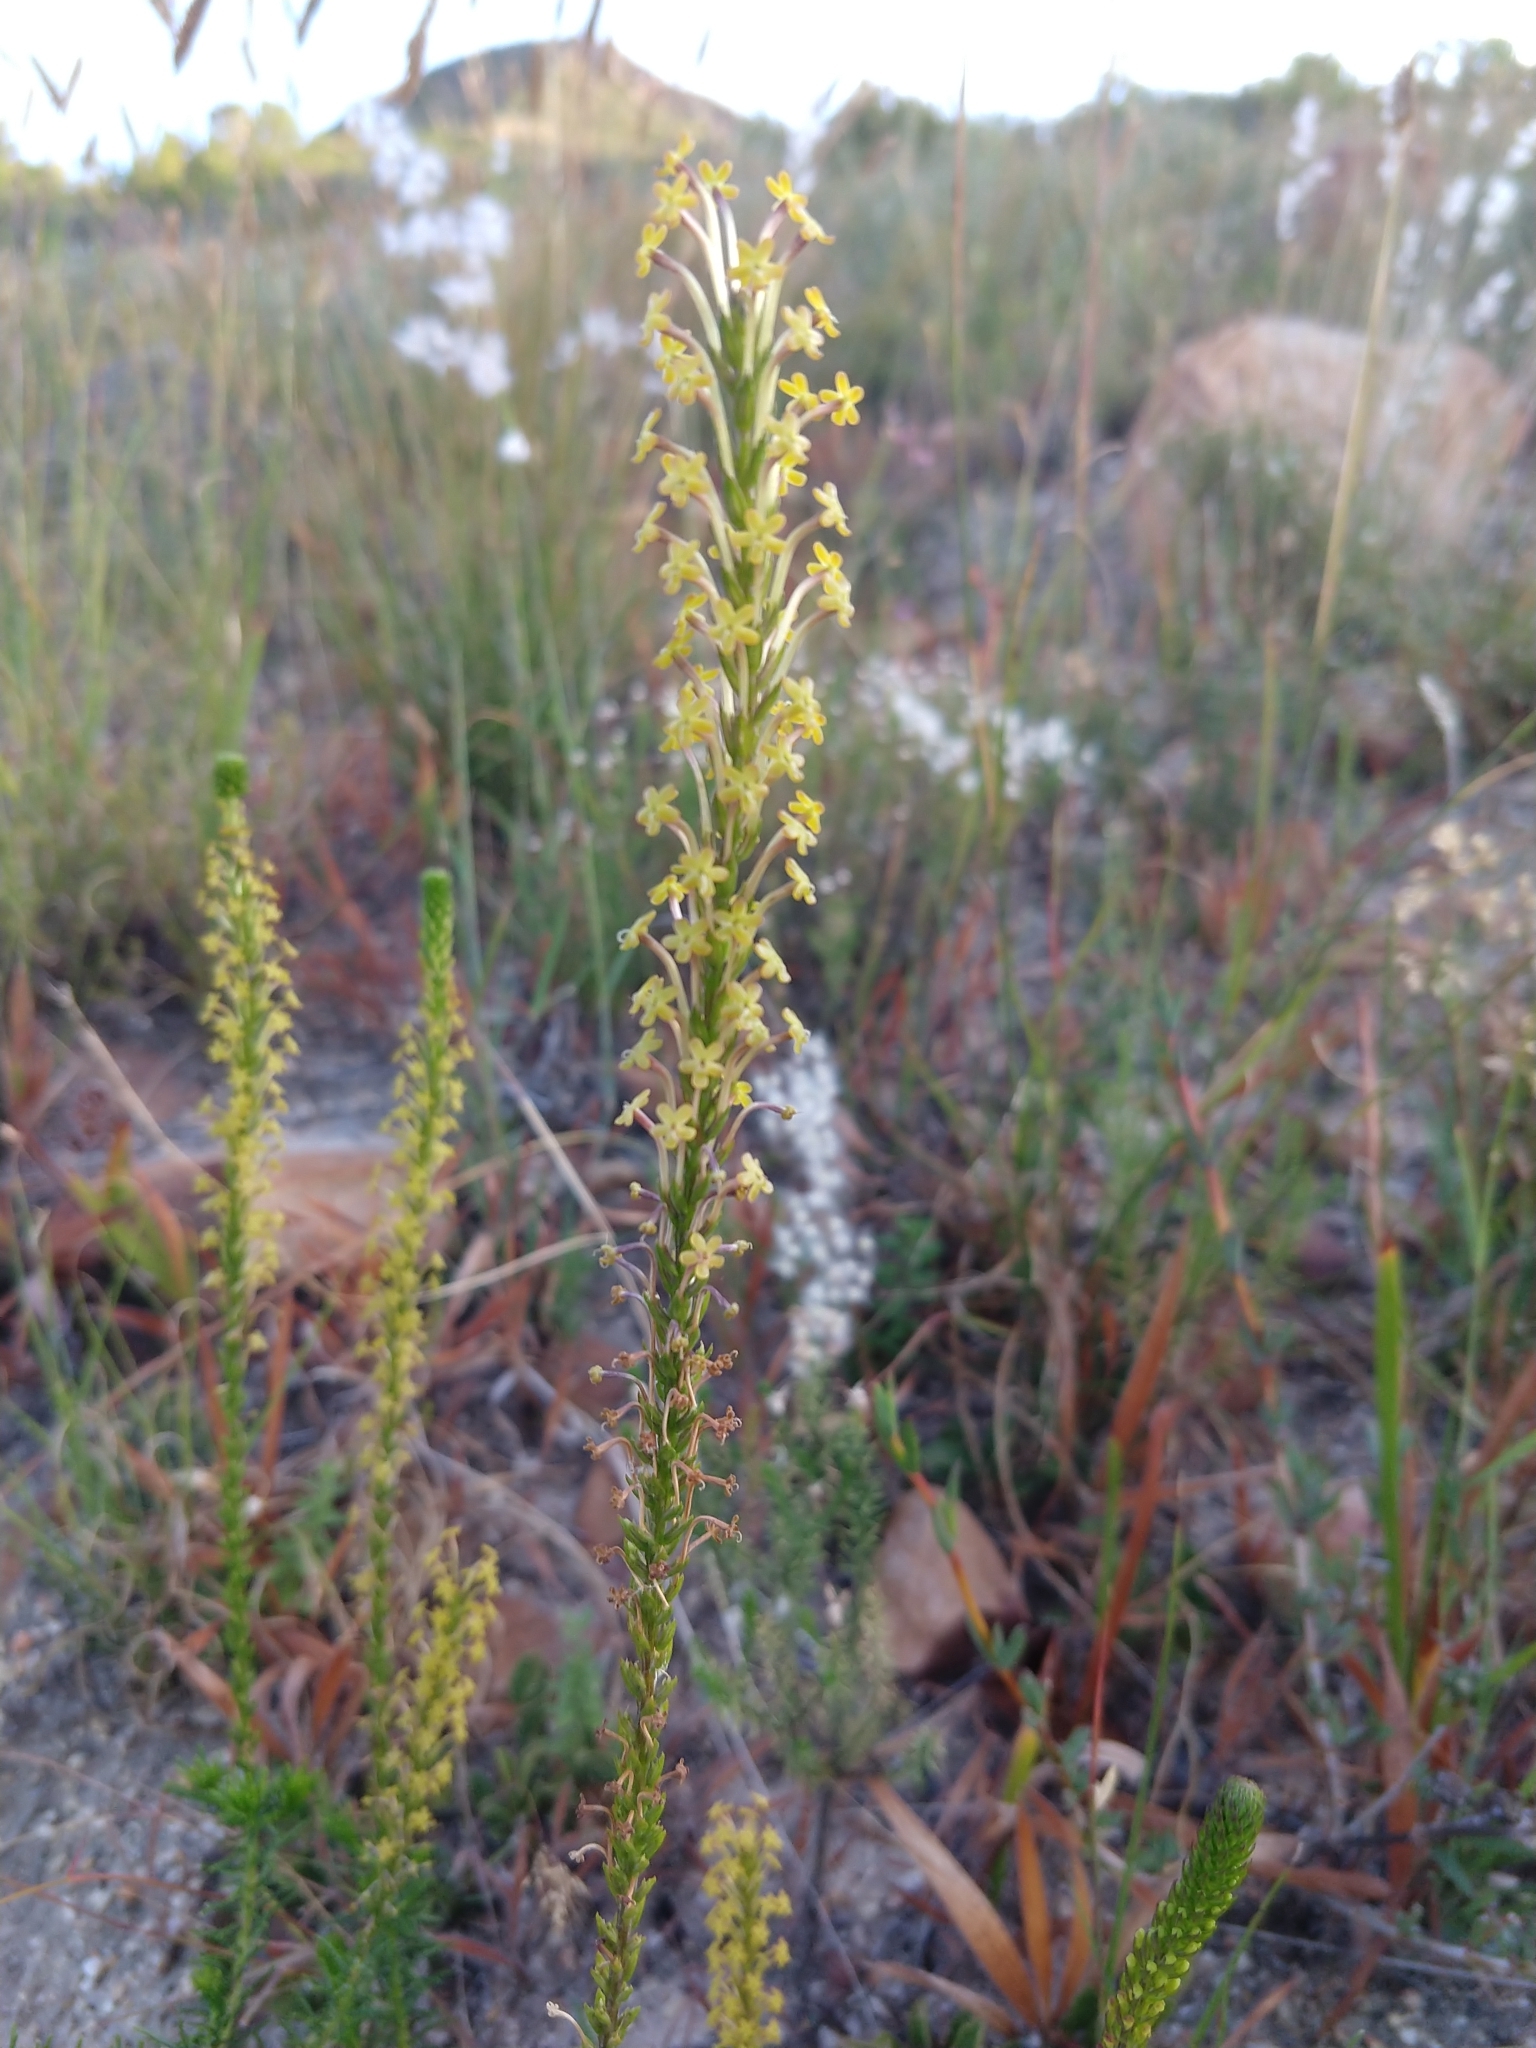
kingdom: Plantae
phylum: Tracheophyta
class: Magnoliopsida
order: Lamiales
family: Scrophulariaceae
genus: Microdon
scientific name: Microdon dubius
